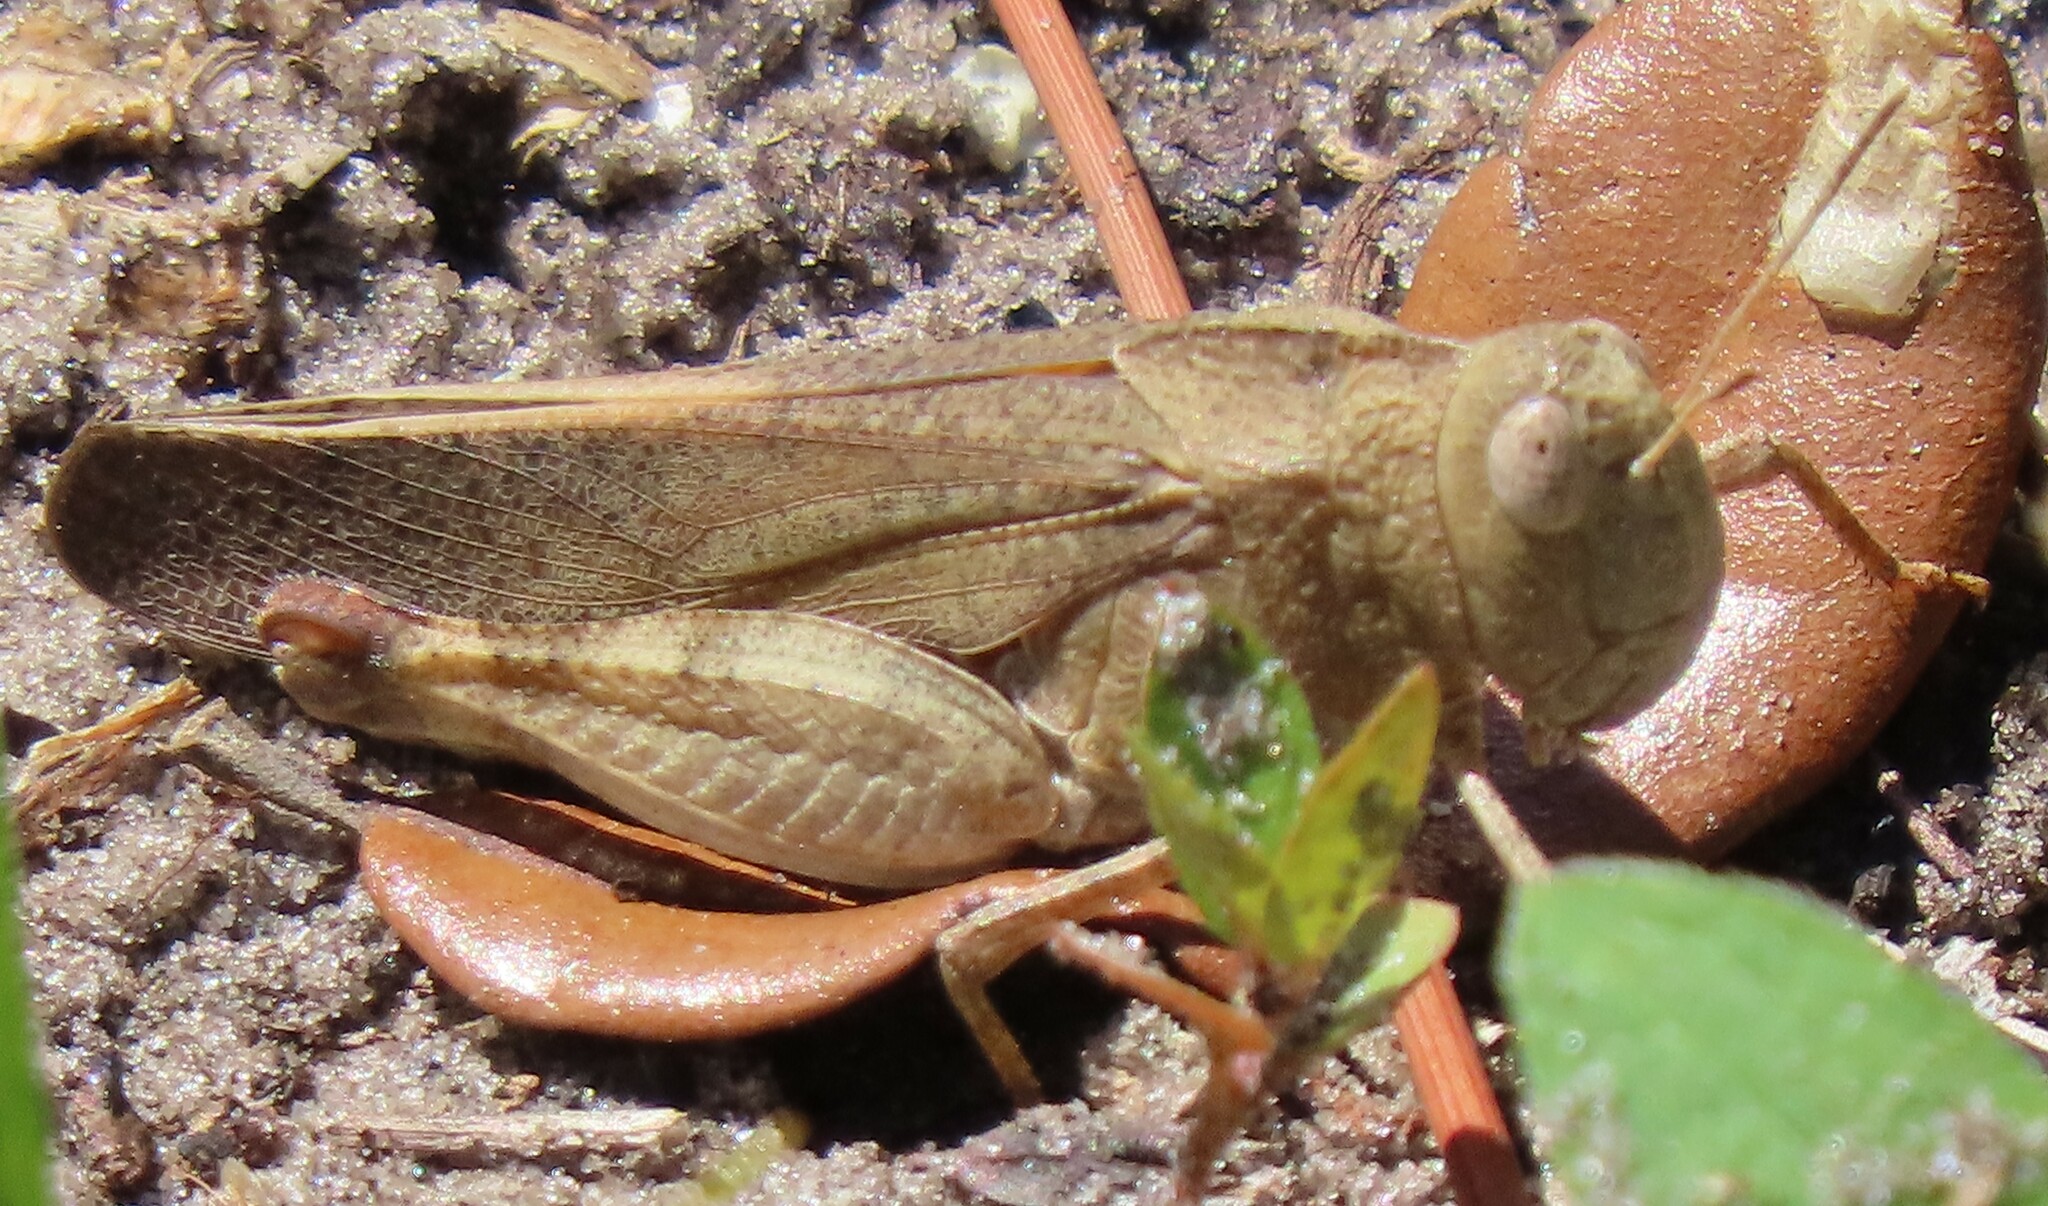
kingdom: Animalia
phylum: Arthropoda
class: Insecta
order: Orthoptera
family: Acrididae
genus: Arphia
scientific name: Arphia sulphurea
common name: Spring yellow-winged locust
